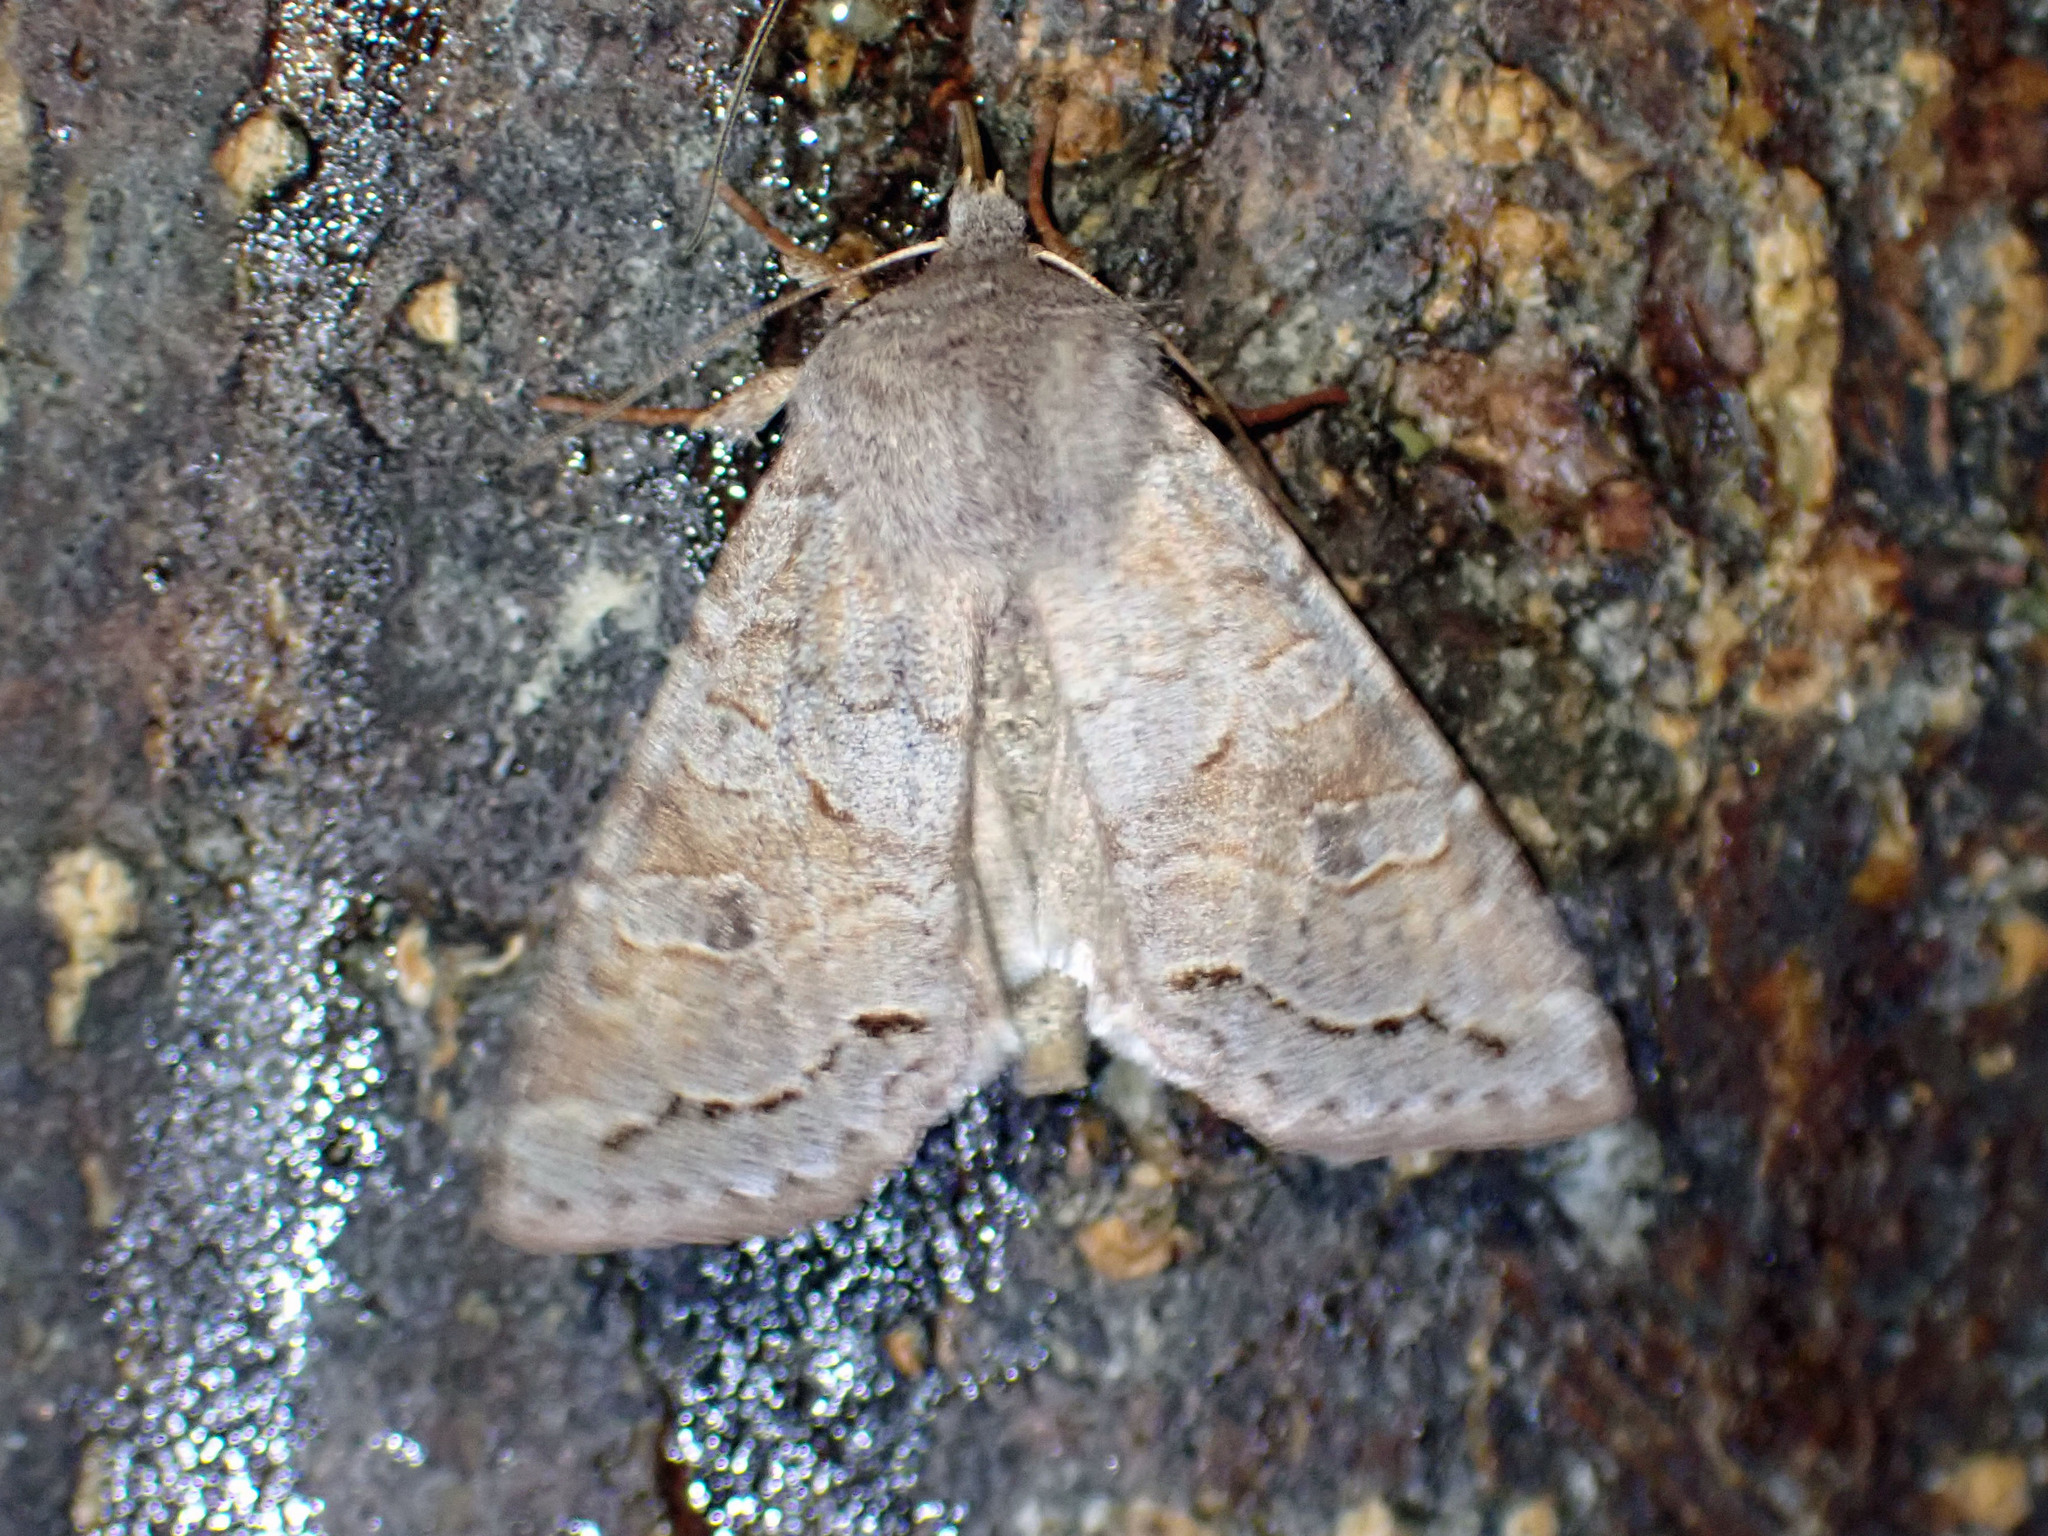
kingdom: Animalia
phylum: Arthropoda
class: Insecta
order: Lepidoptera
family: Noctuidae
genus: Orthosia
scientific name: Orthosia revicta
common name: Rusty whitesided caterpillar
